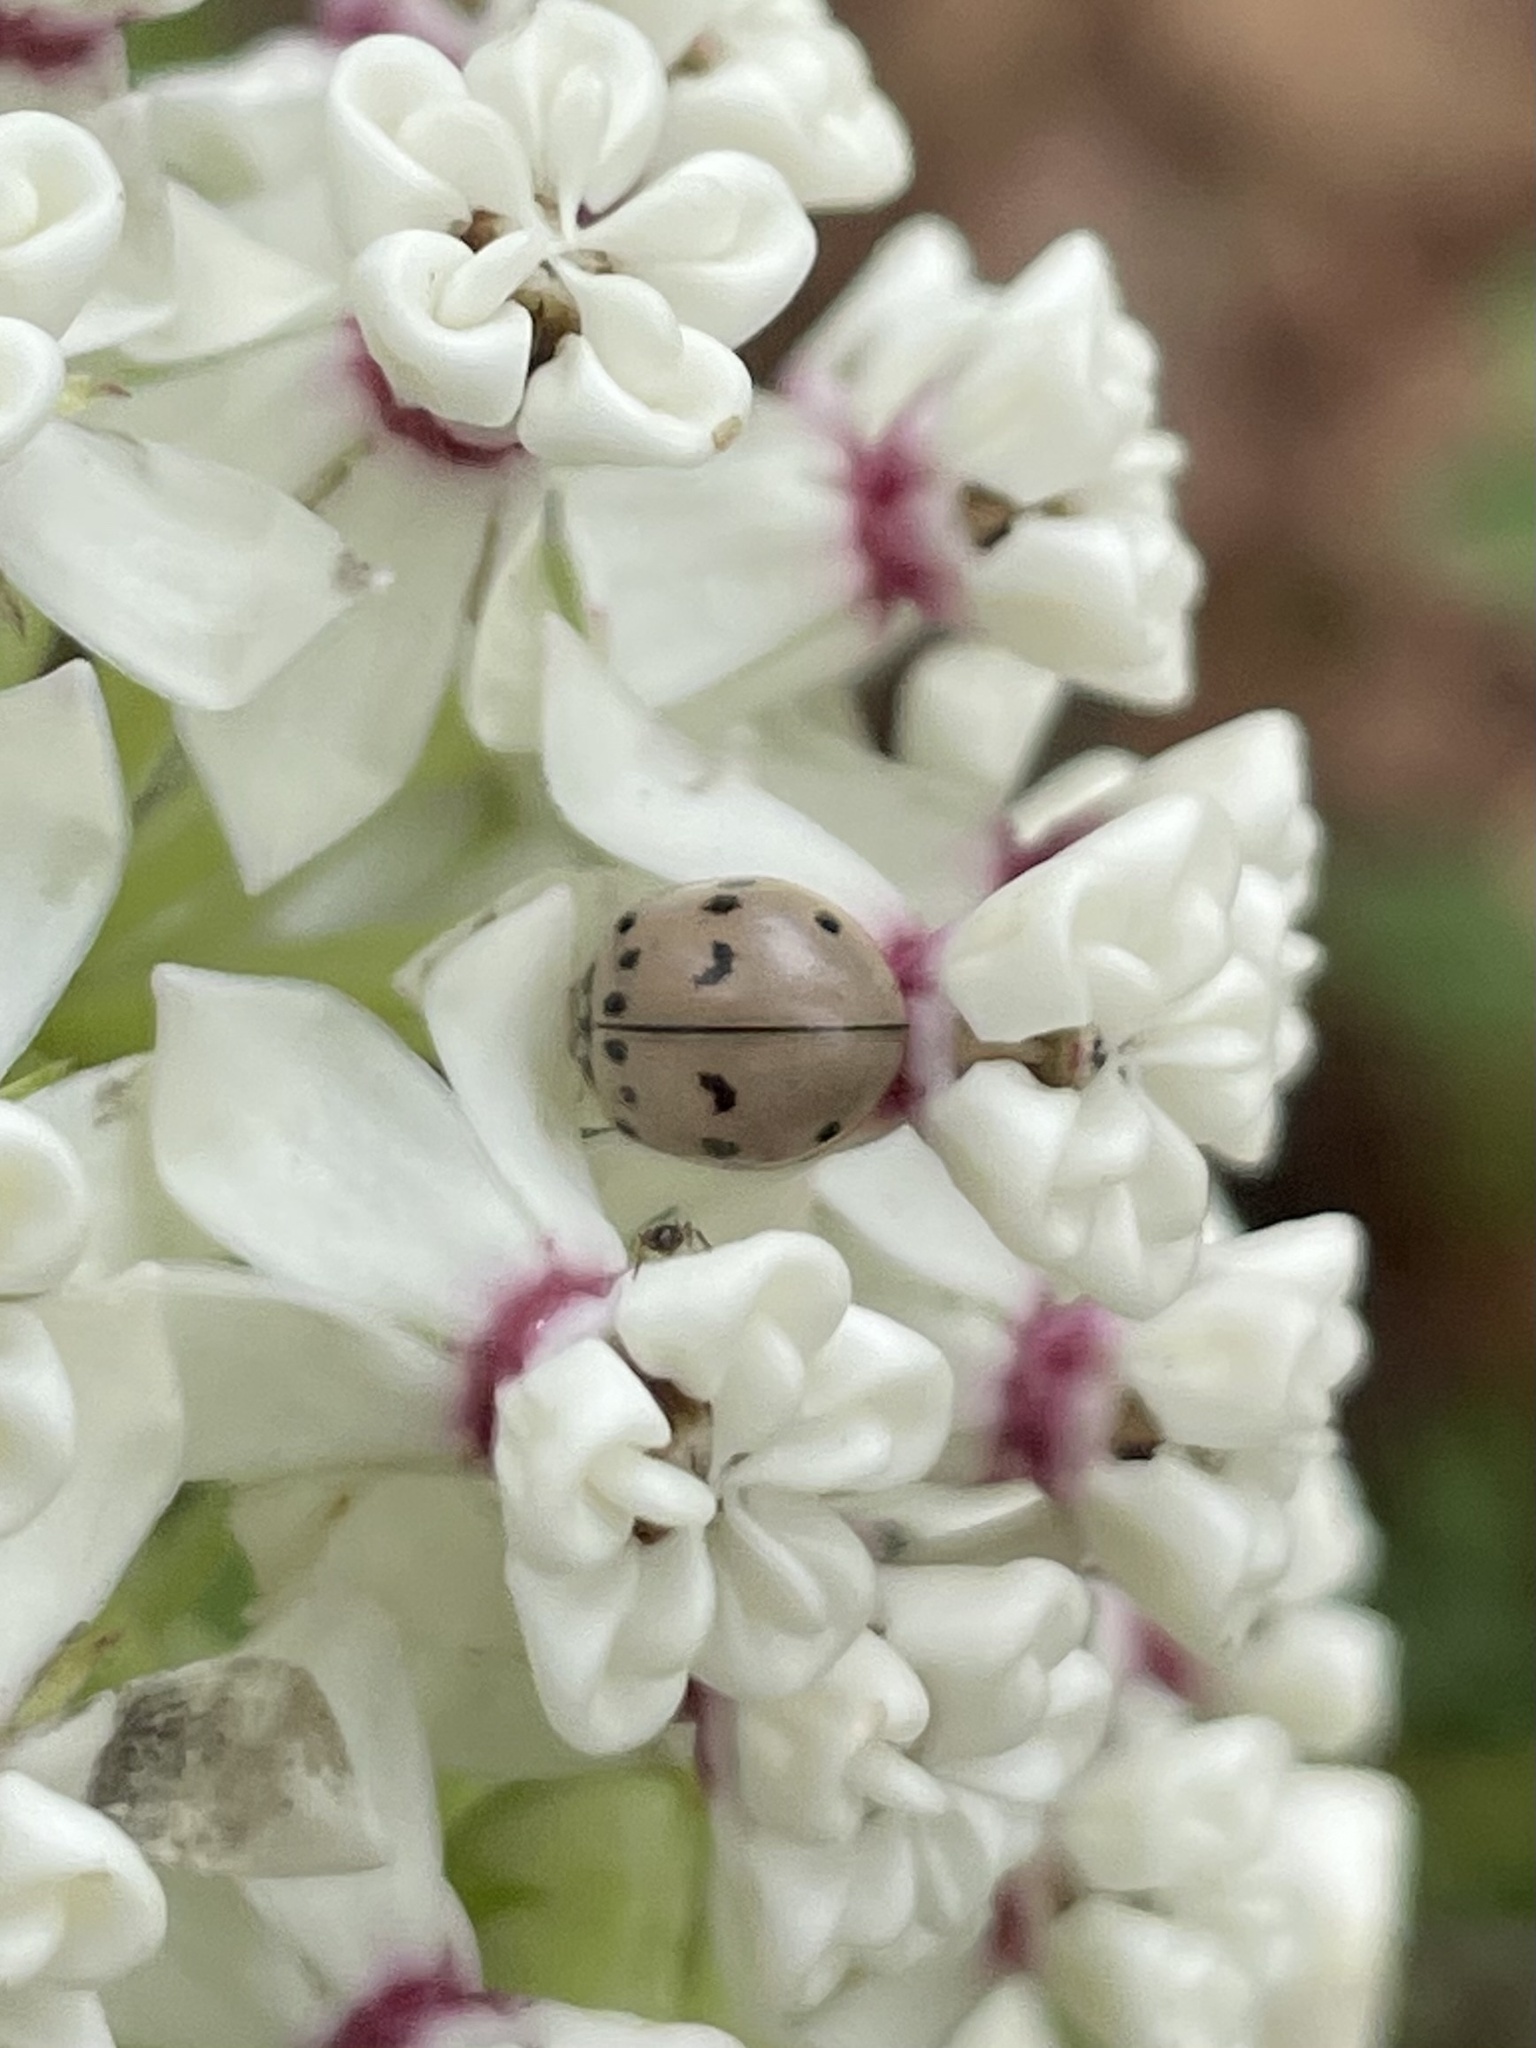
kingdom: Animalia
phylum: Arthropoda
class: Insecta
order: Coleoptera
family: Coccinellidae
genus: Olla
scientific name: Olla v-nigrum
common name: Ashy gray lady beetle
